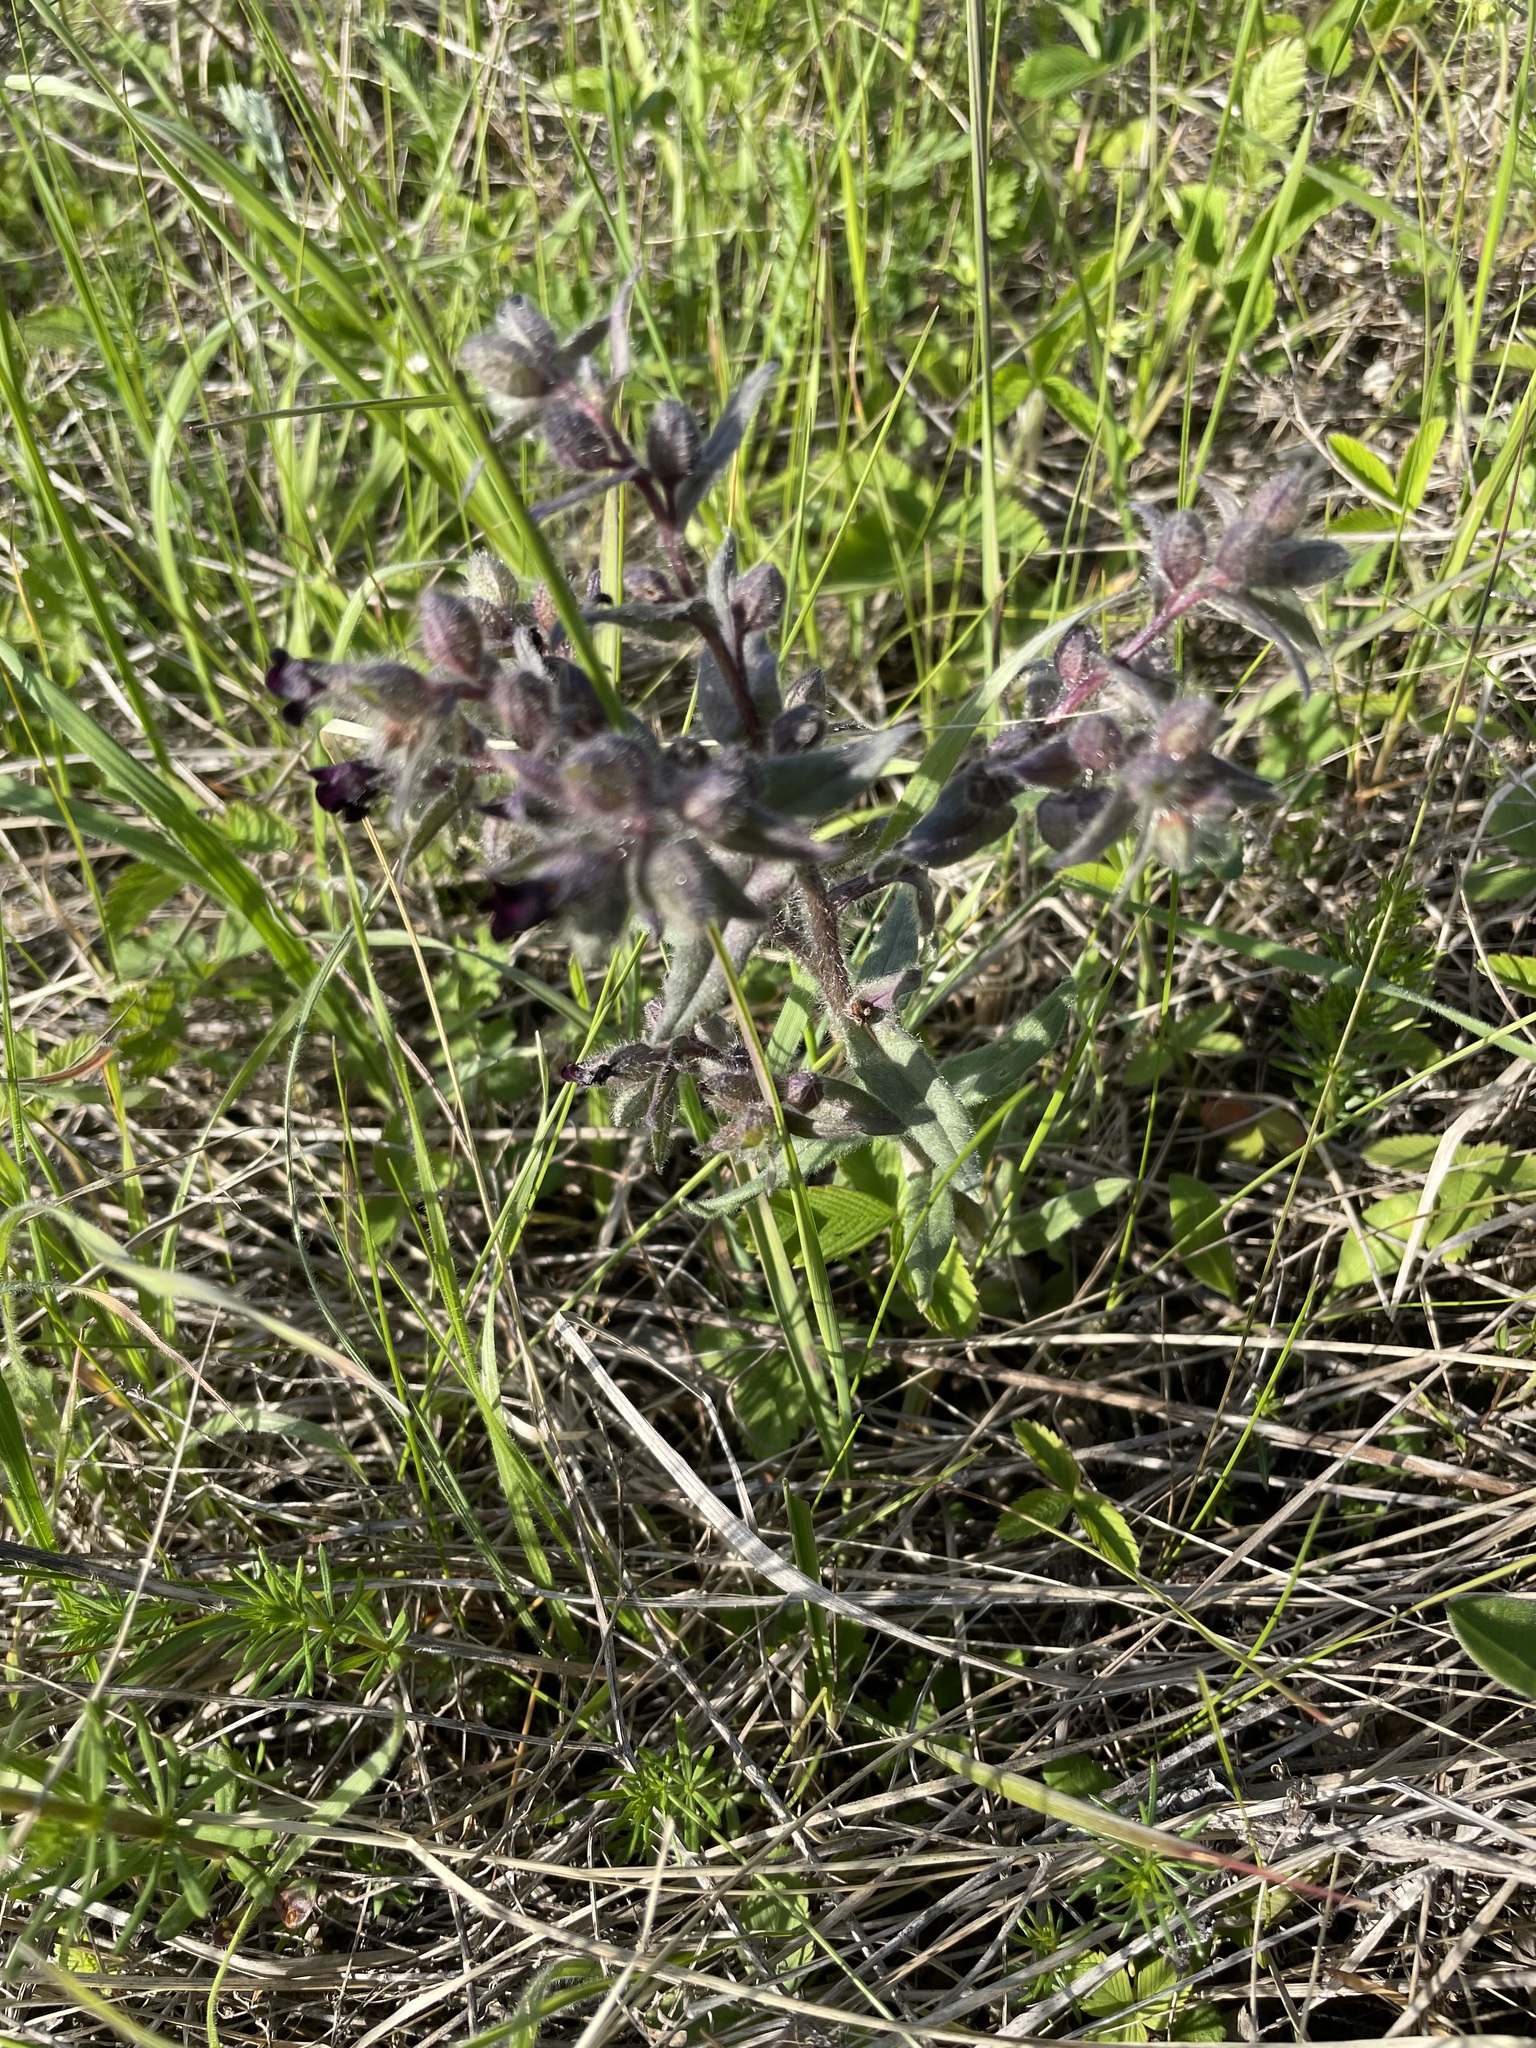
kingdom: Plantae
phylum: Tracheophyta
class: Magnoliopsida
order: Boraginales
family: Boraginaceae
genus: Nonea
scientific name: Nonea pulla
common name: Brown nonea
